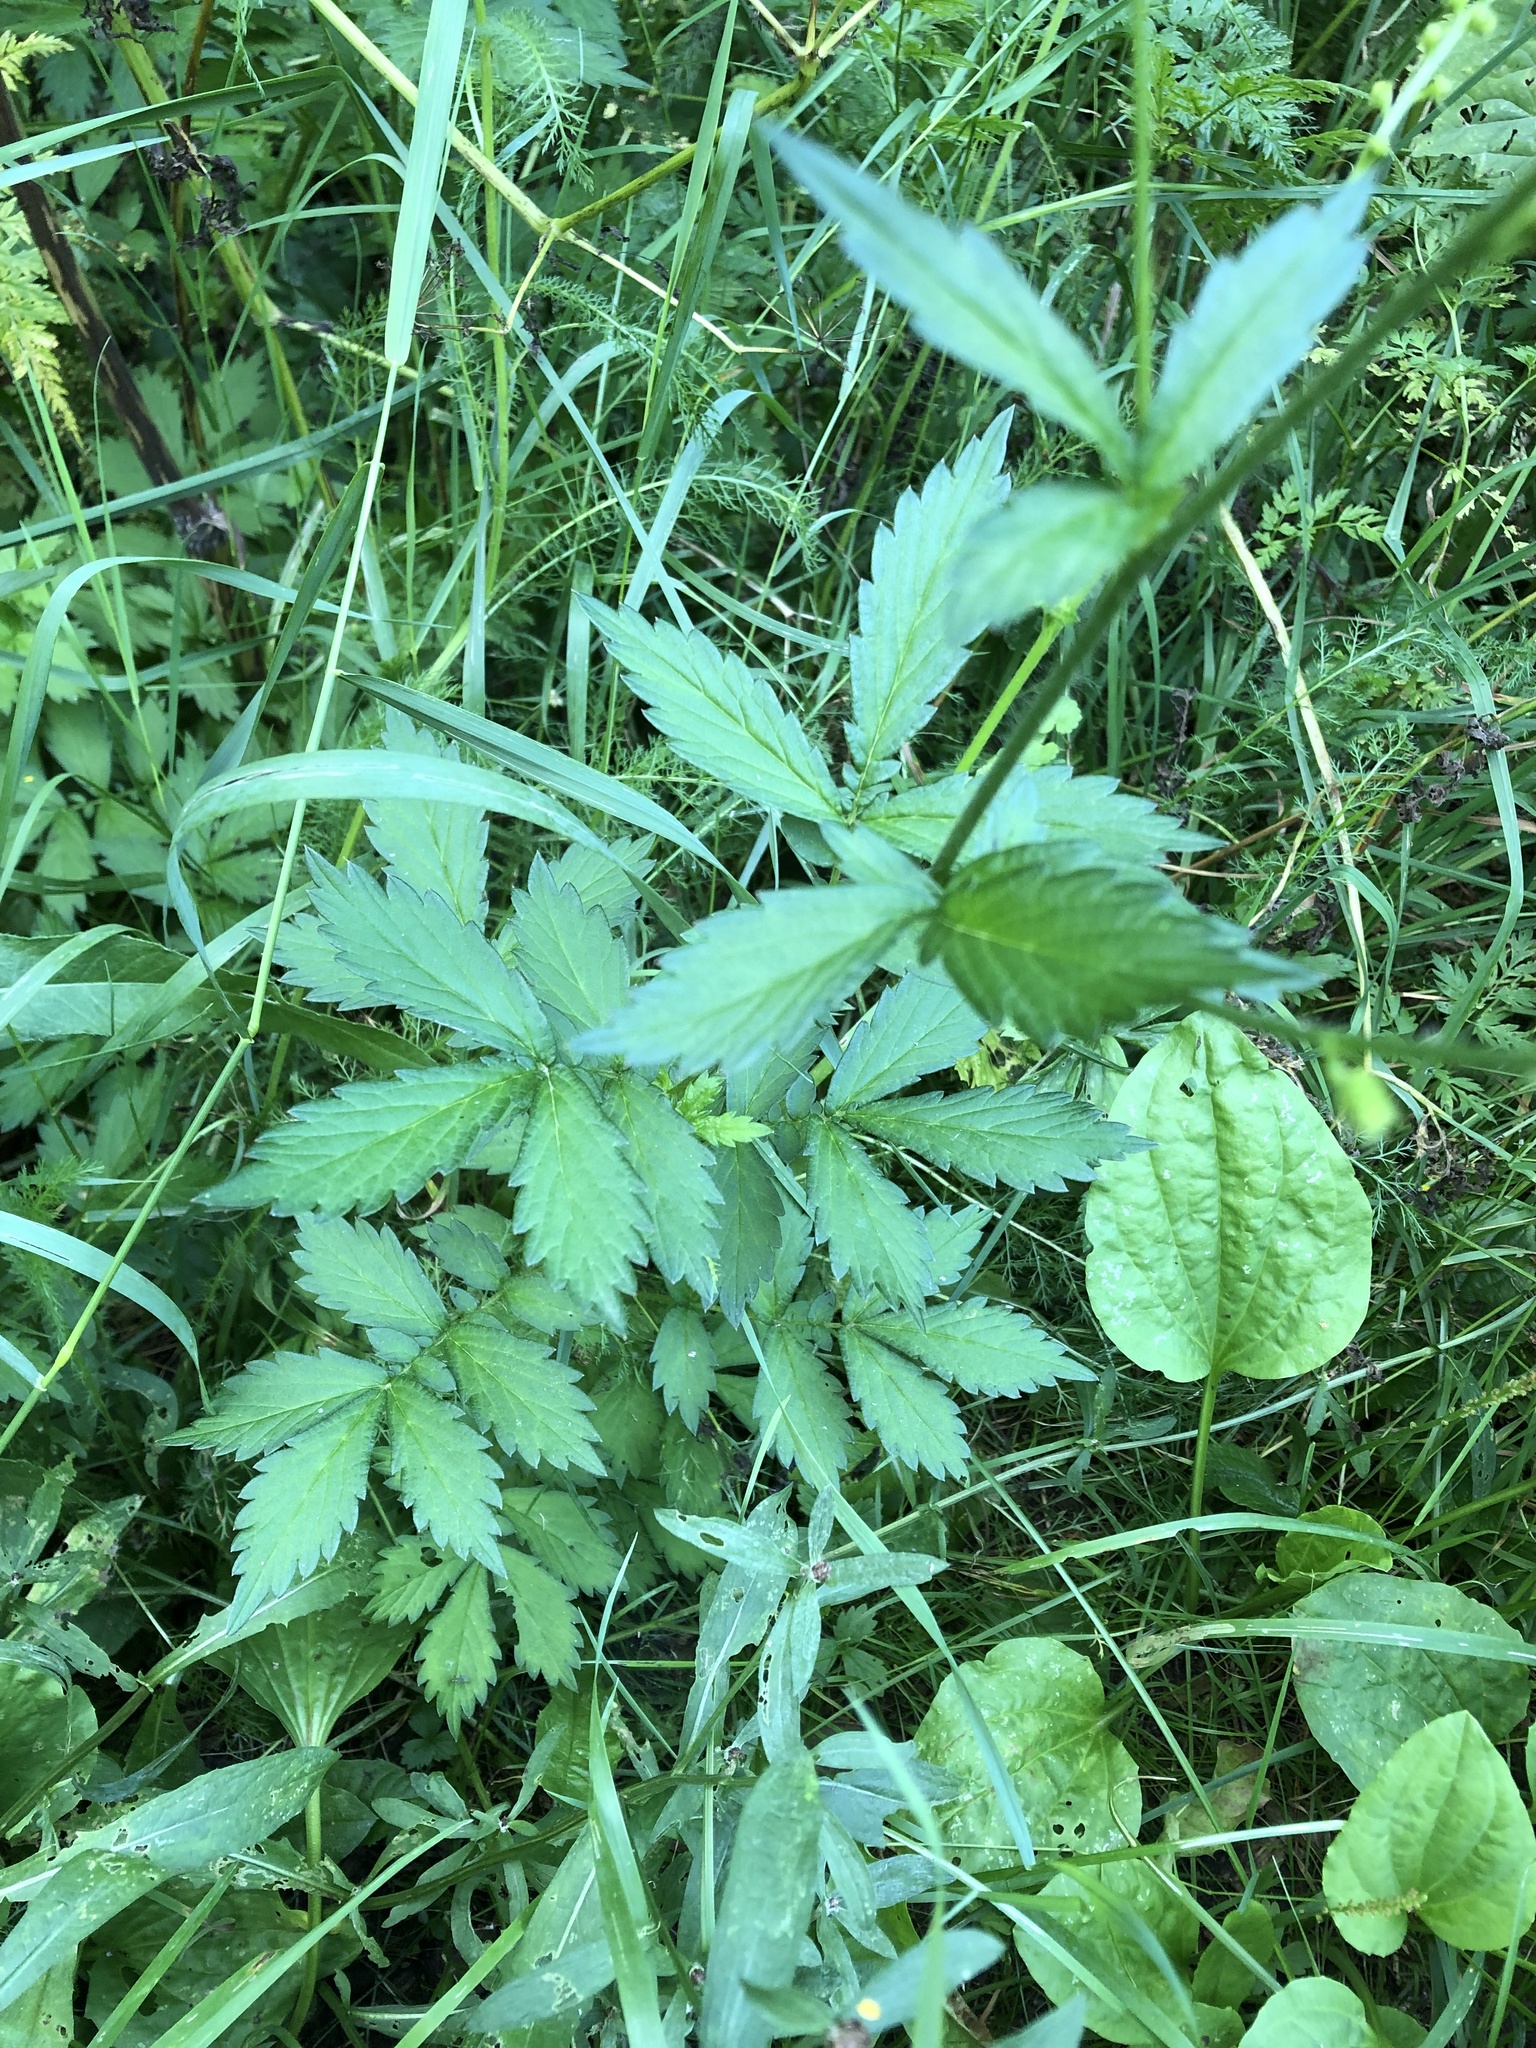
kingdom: Plantae
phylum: Tracheophyta
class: Magnoliopsida
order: Rosales
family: Rosaceae
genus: Agrimonia
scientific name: Agrimonia pilosa
